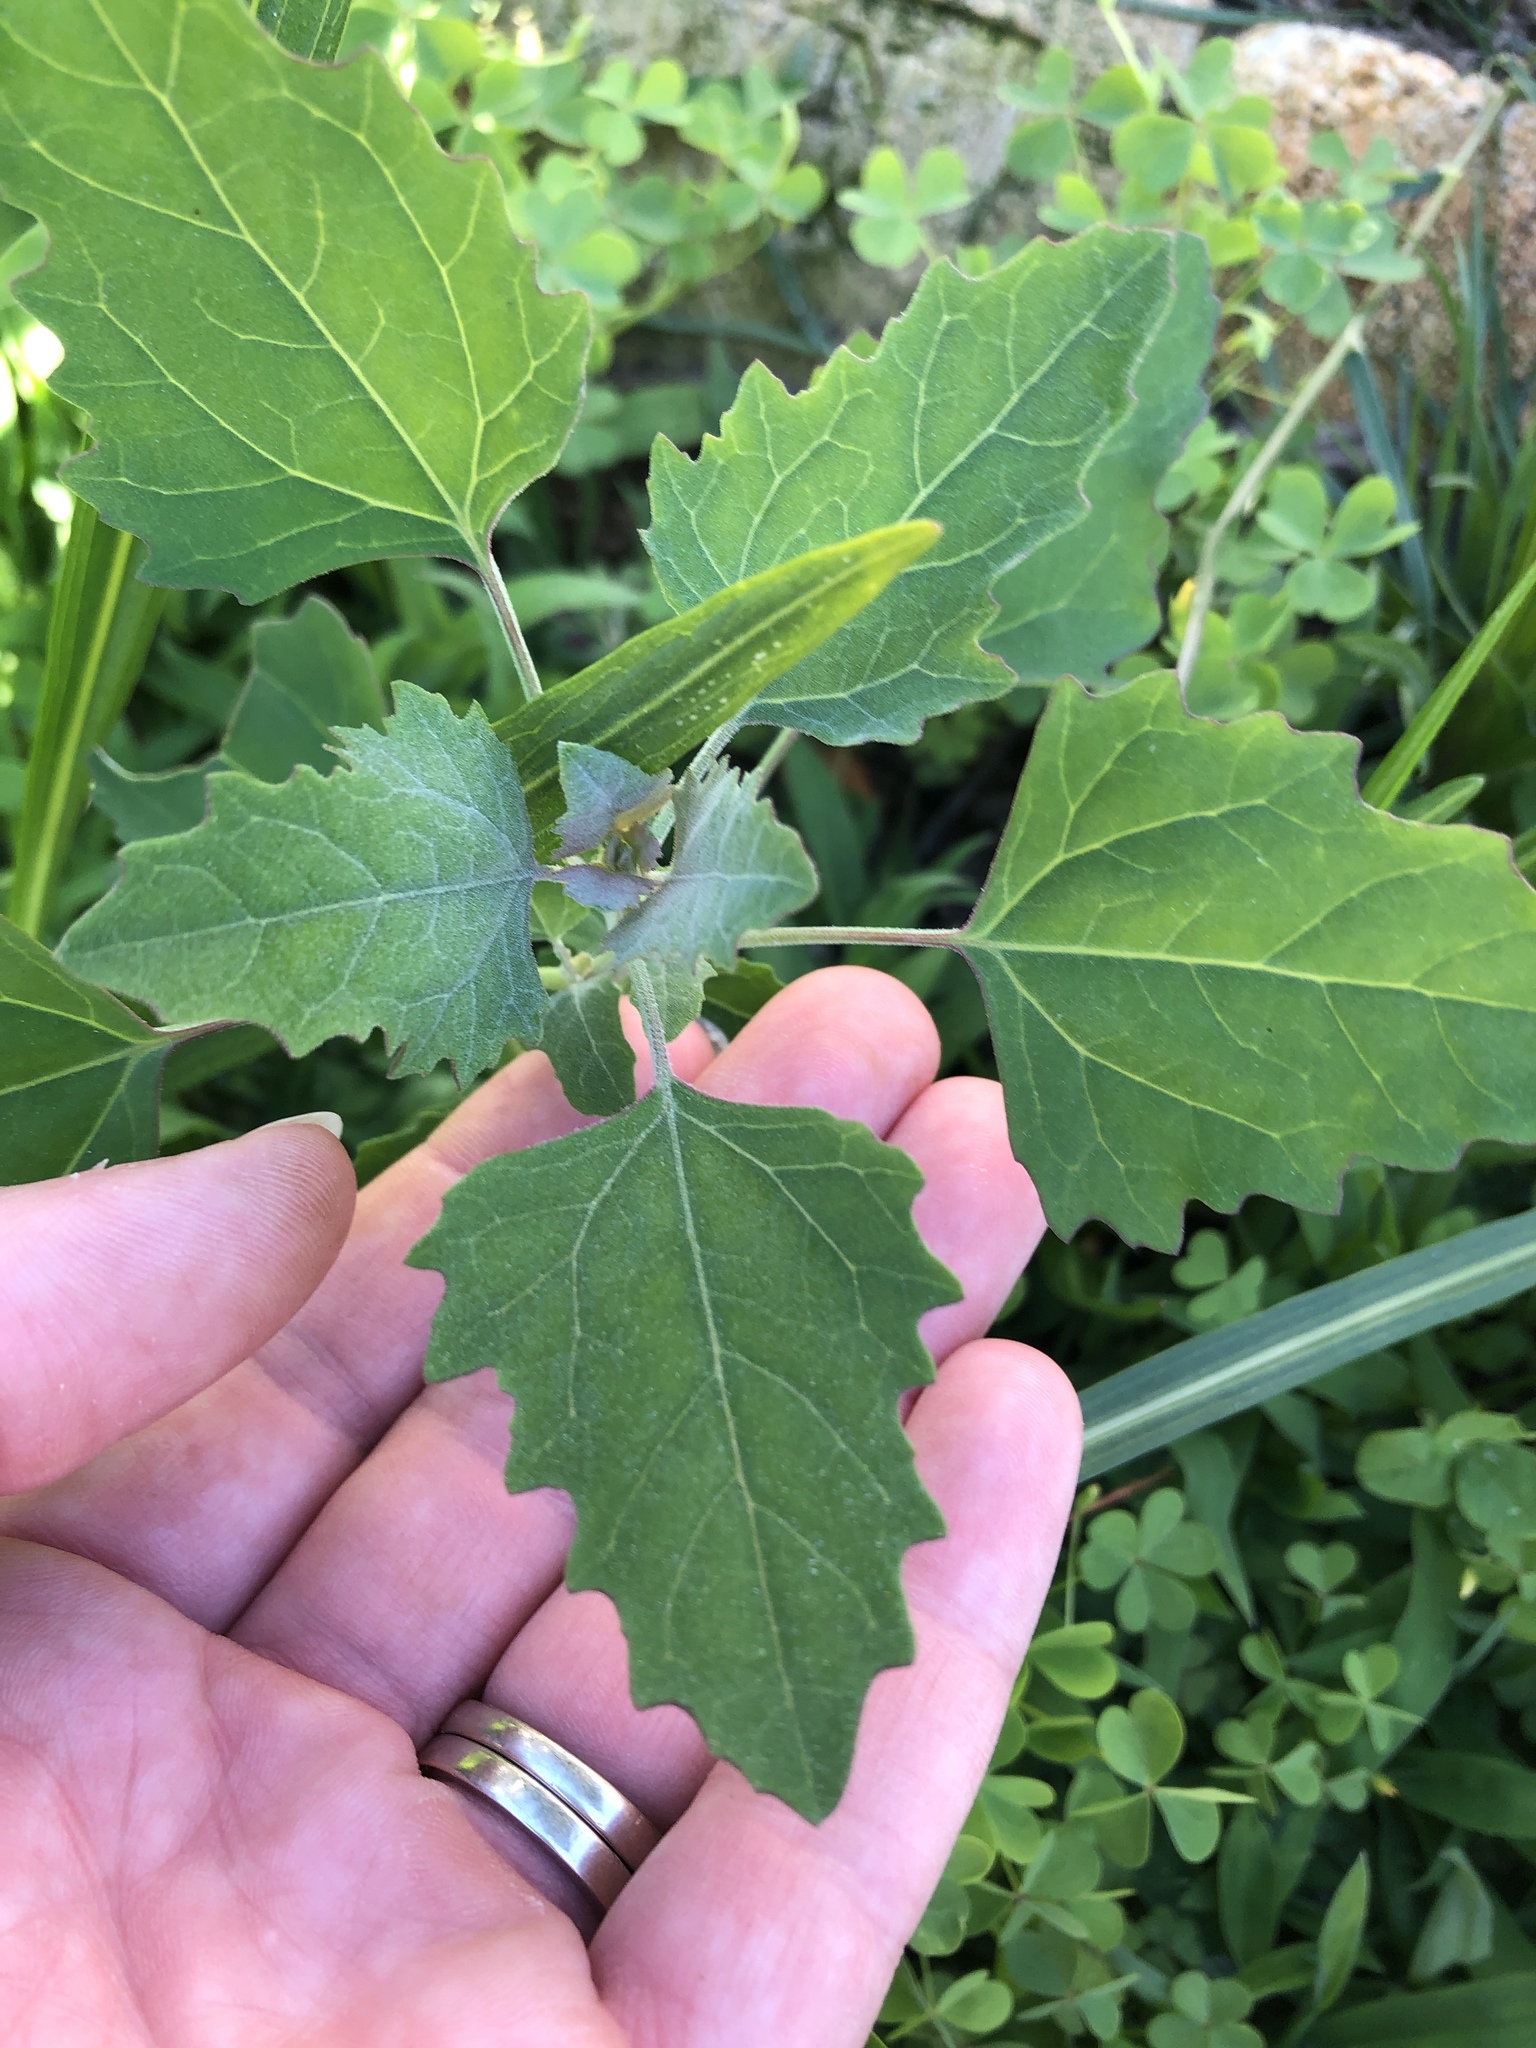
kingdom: Plantae
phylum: Tracheophyta
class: Magnoliopsida
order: Caryophyllales
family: Amaranthaceae
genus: Chenopodium
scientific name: Chenopodium album
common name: Fat-hen
